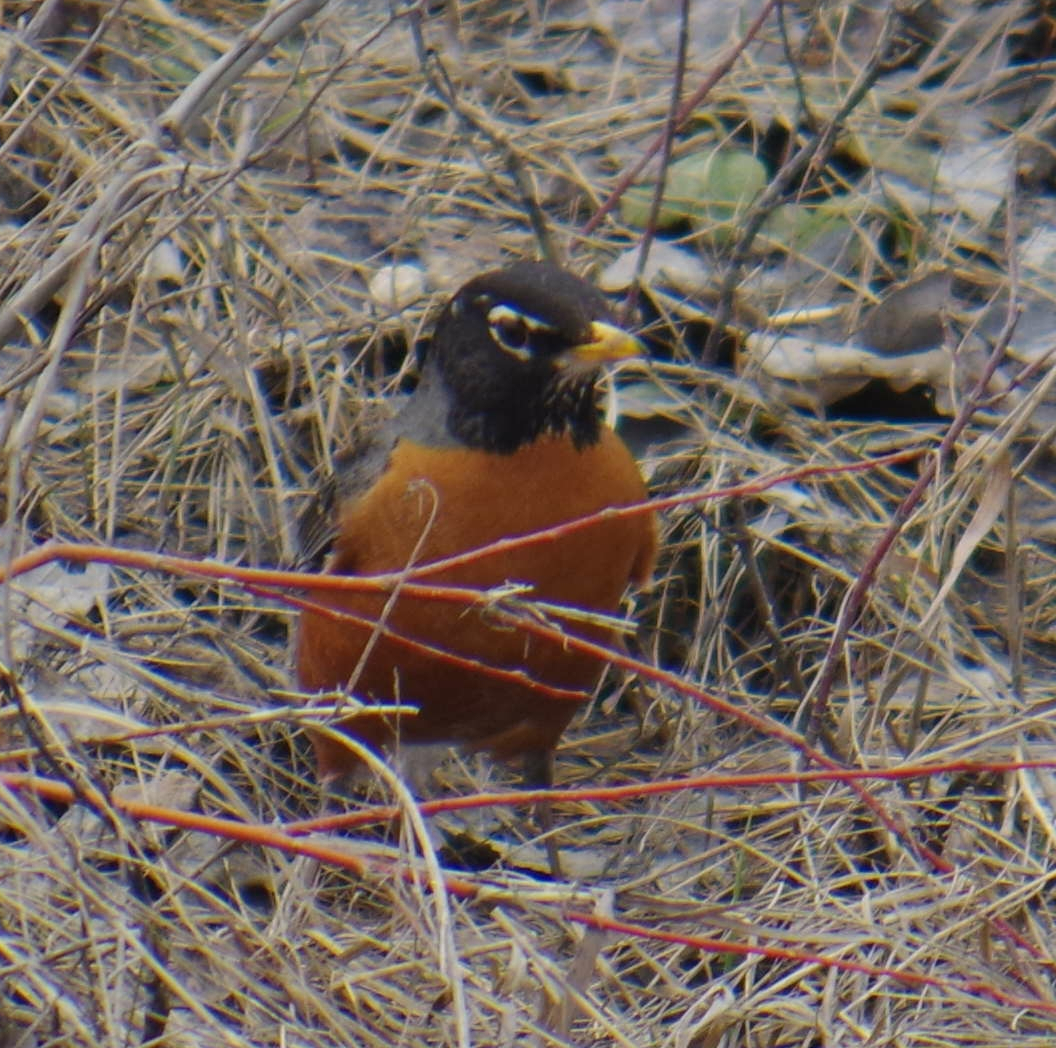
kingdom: Animalia
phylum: Chordata
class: Aves
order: Passeriformes
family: Turdidae
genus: Turdus
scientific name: Turdus migratorius
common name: American robin
